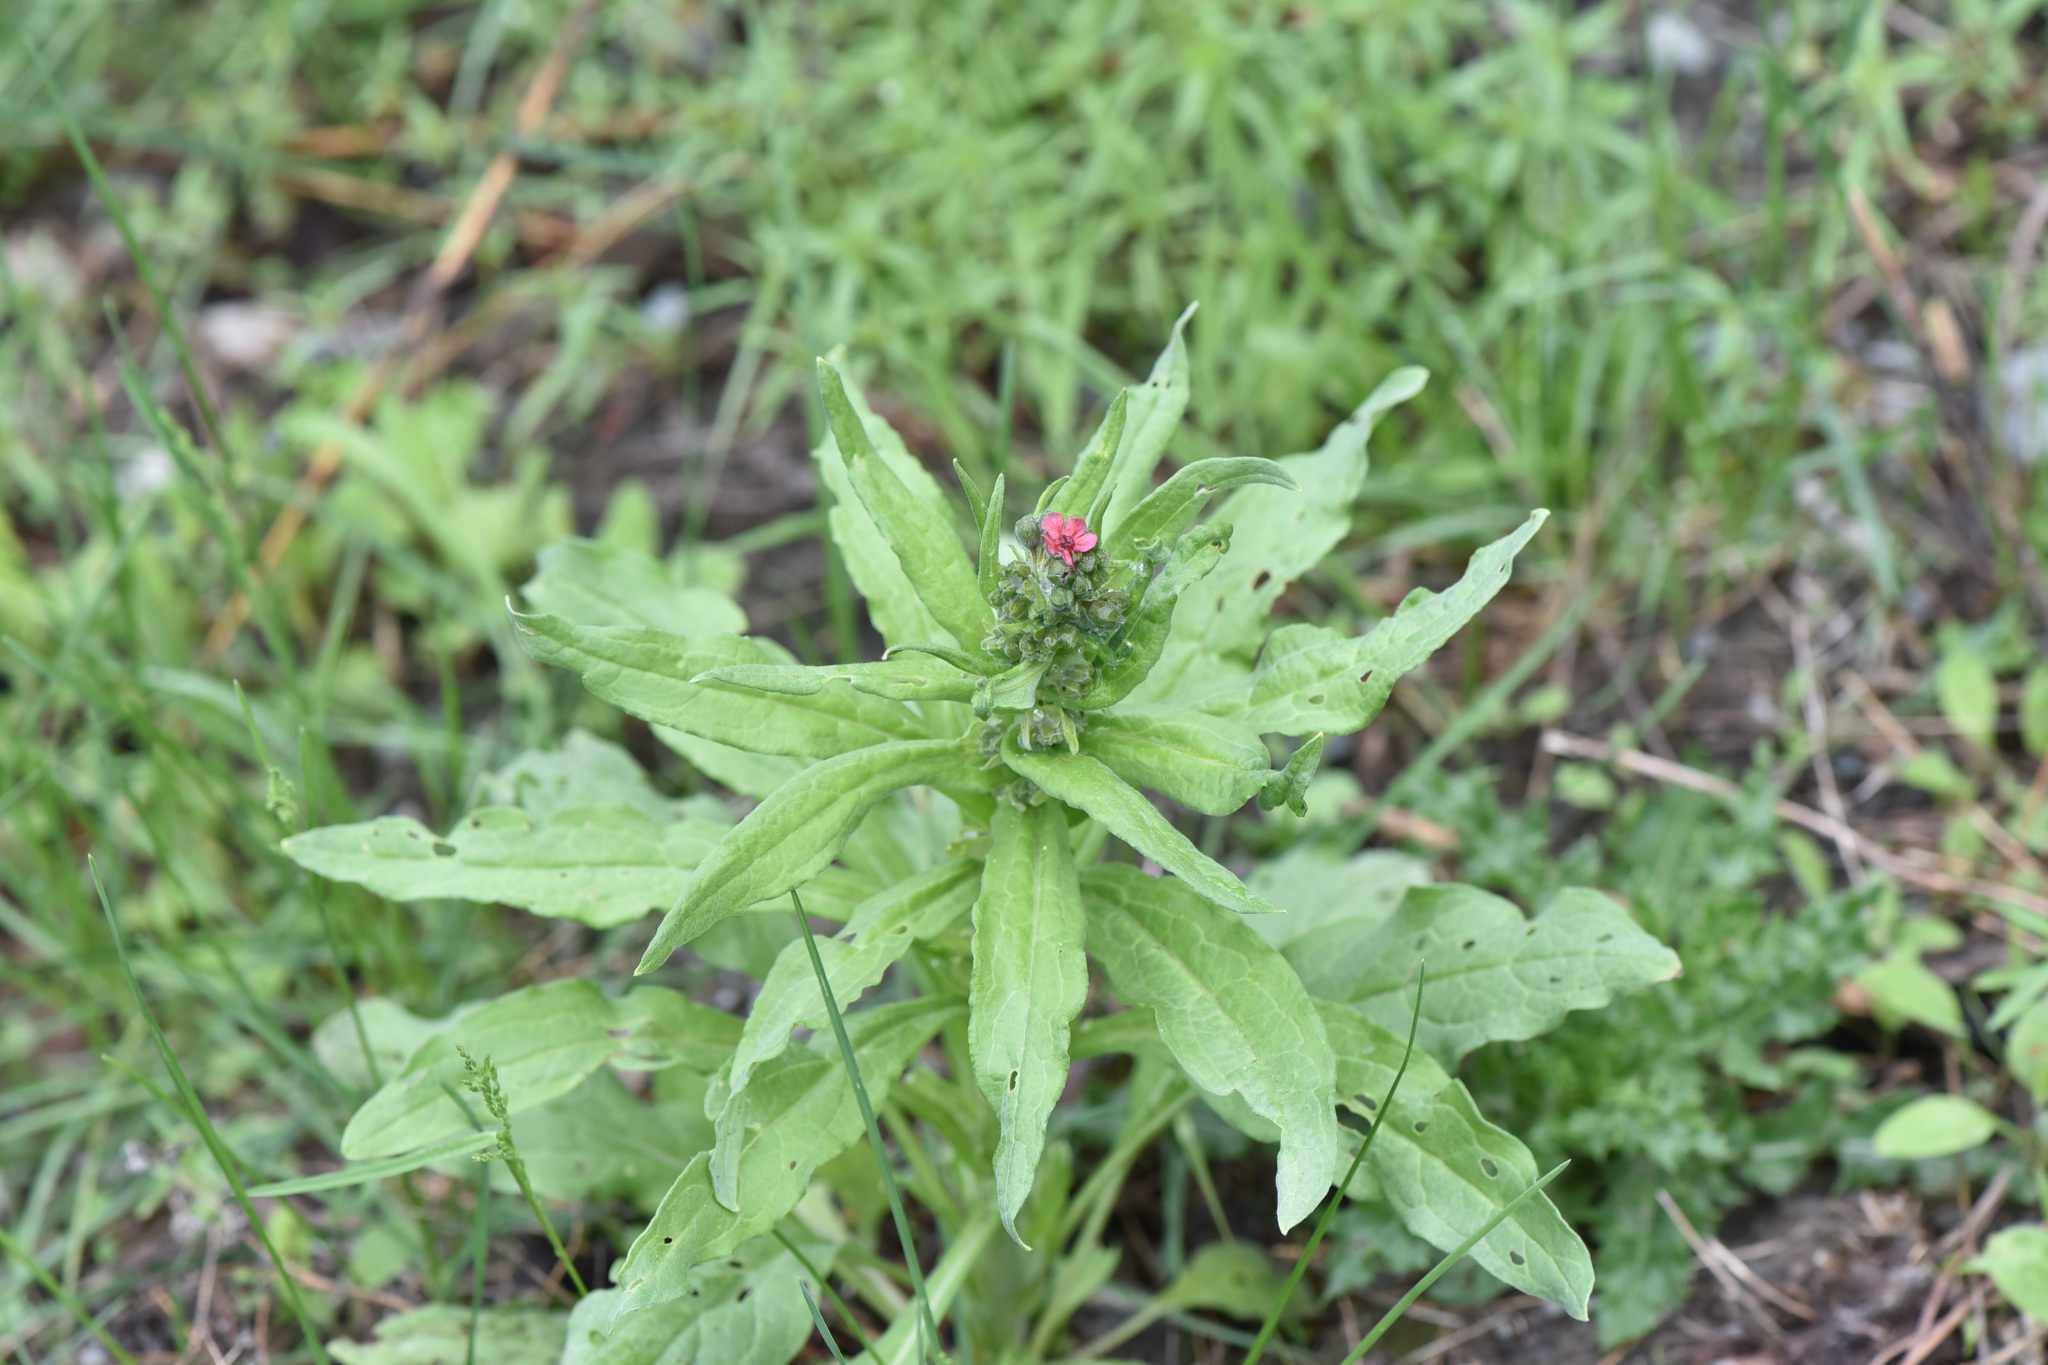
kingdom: Plantae
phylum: Tracheophyta
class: Magnoliopsida
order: Boraginales
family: Boraginaceae
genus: Cynoglossum
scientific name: Cynoglossum officinale
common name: Hound's-tongue
